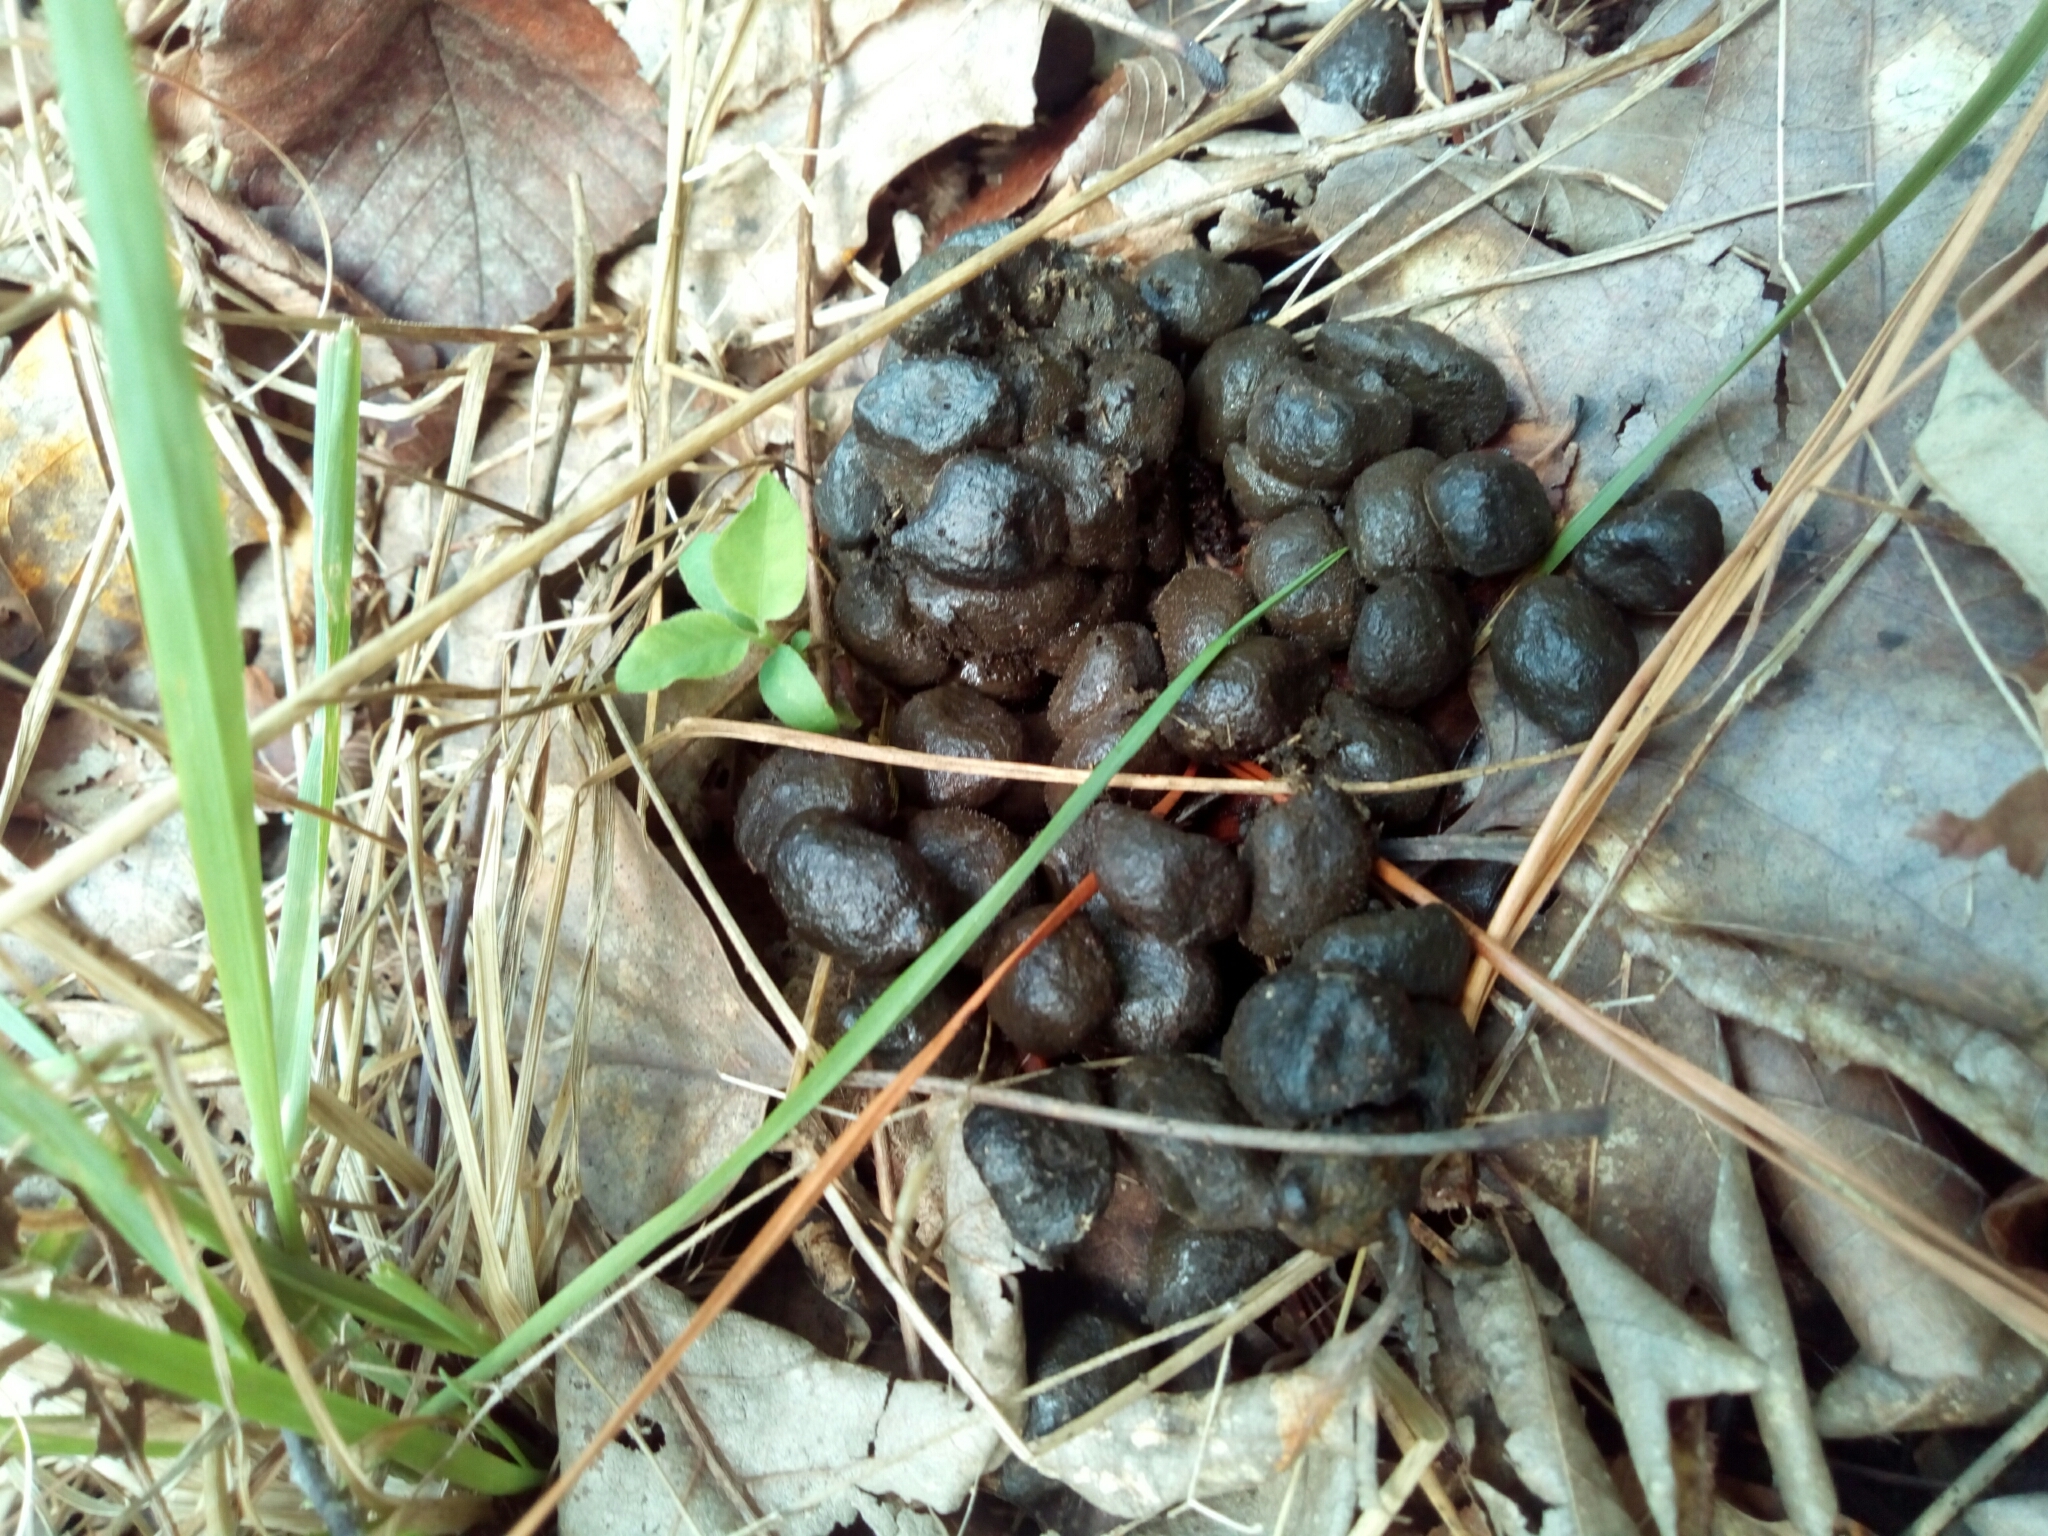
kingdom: Animalia
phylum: Chordata
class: Mammalia
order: Artiodactyla
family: Cervidae
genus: Odocoileus
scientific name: Odocoileus virginianus
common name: White-tailed deer
